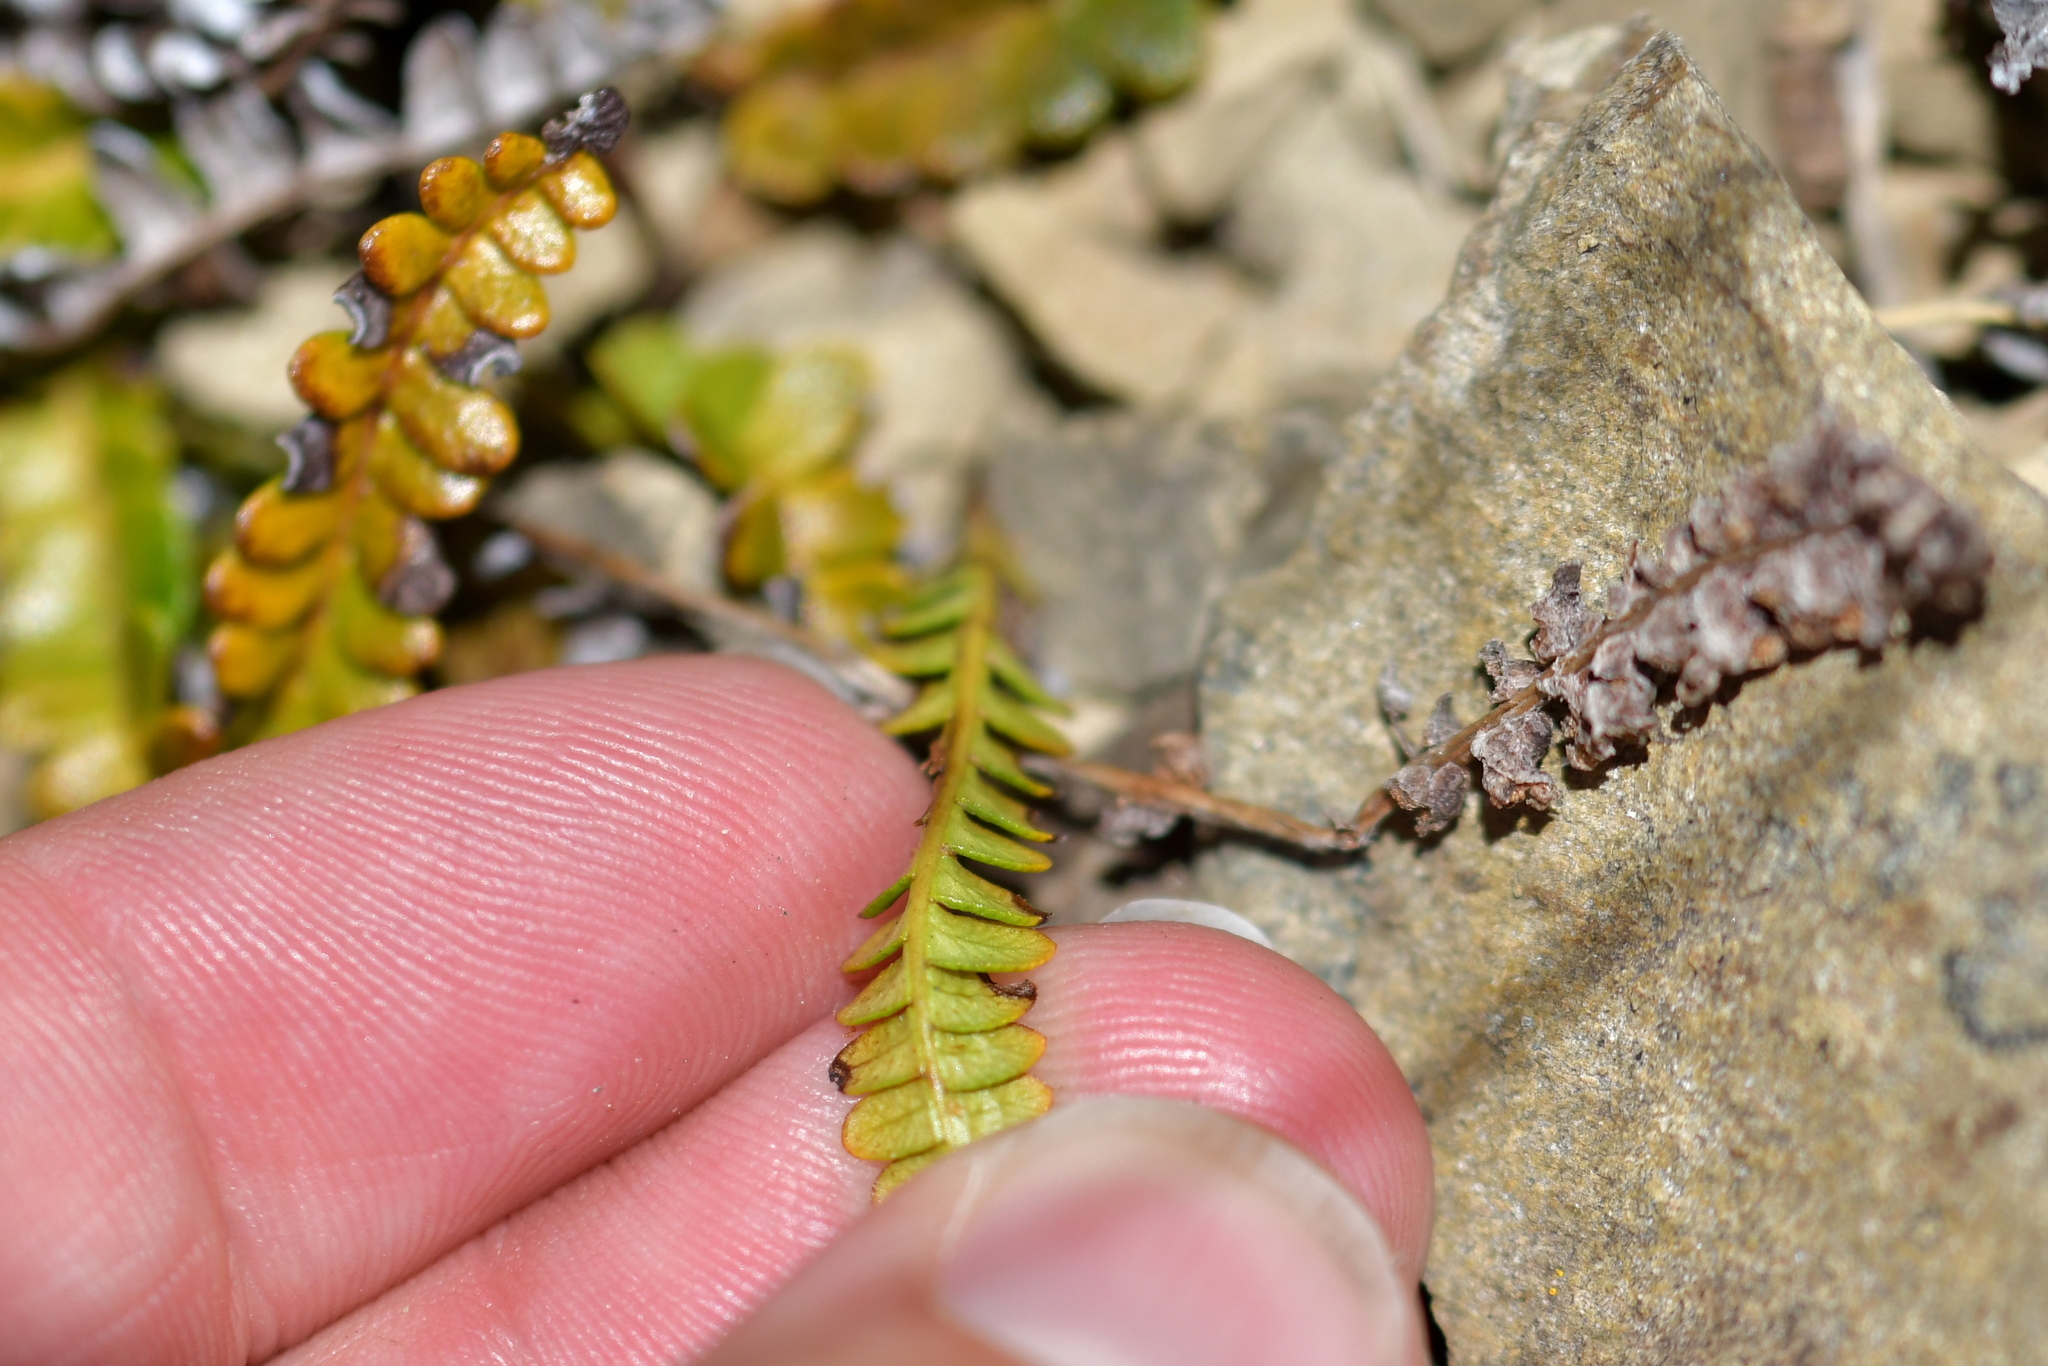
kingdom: Plantae
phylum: Tracheophyta
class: Polypodiopsida
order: Polypodiales
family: Blechnaceae
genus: Austroblechnum
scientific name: Austroblechnum penna-marina
